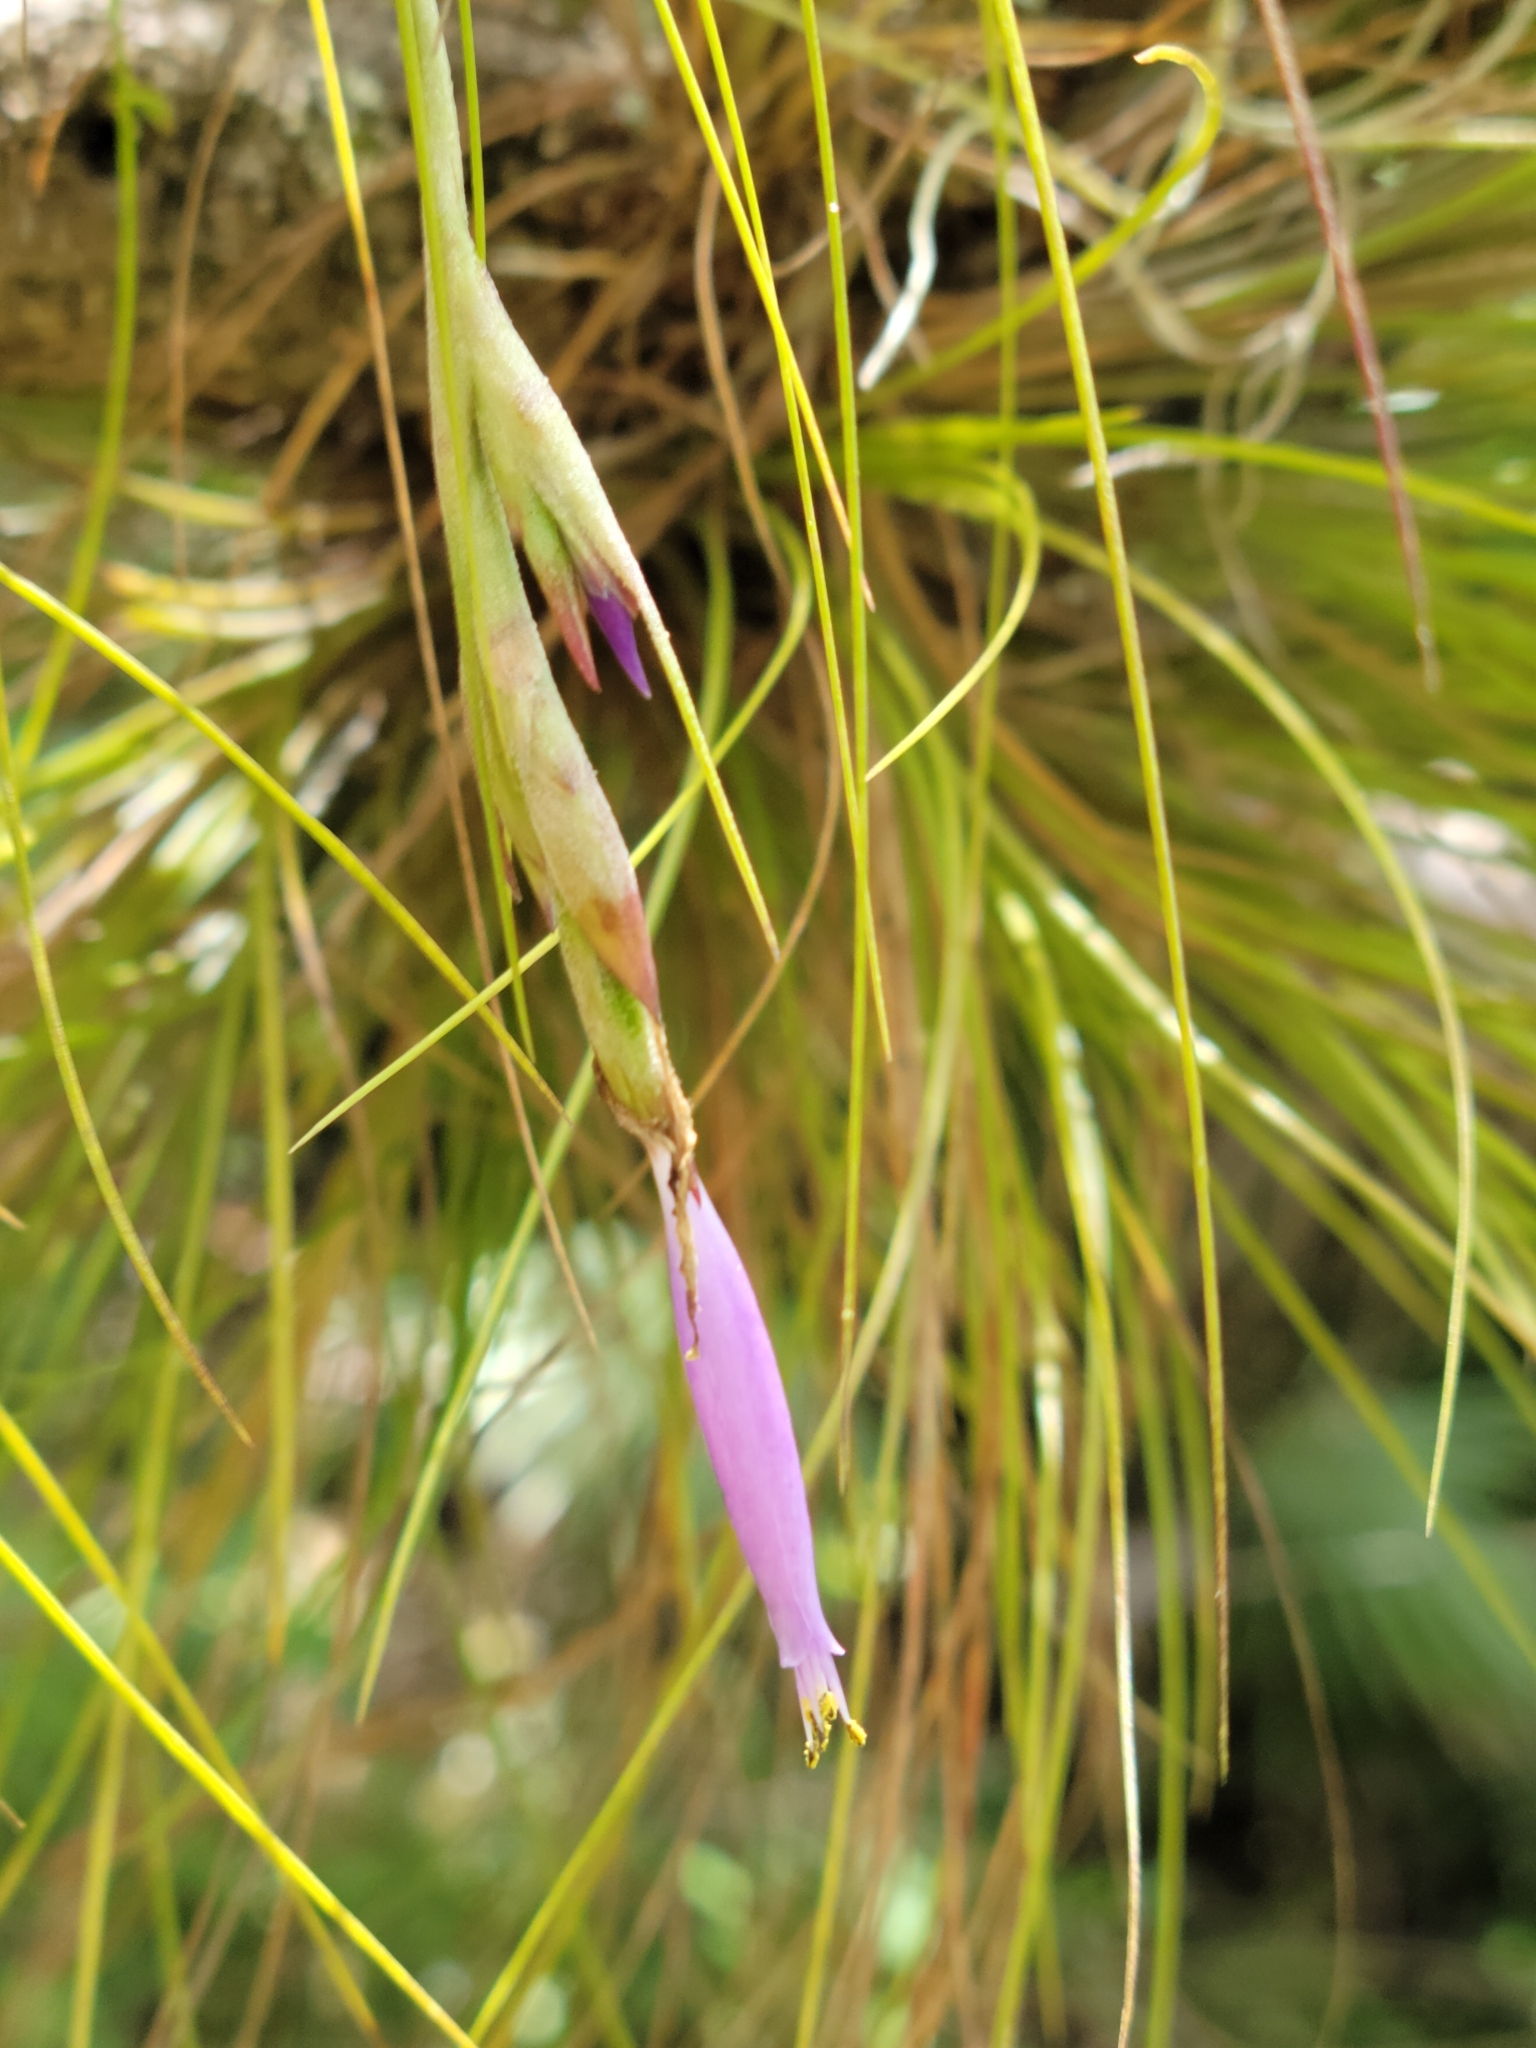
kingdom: Plantae
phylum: Tracheophyta
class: Liliopsida
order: Poales
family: Bromeliaceae
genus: Tillandsia
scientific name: Tillandsia setacea
